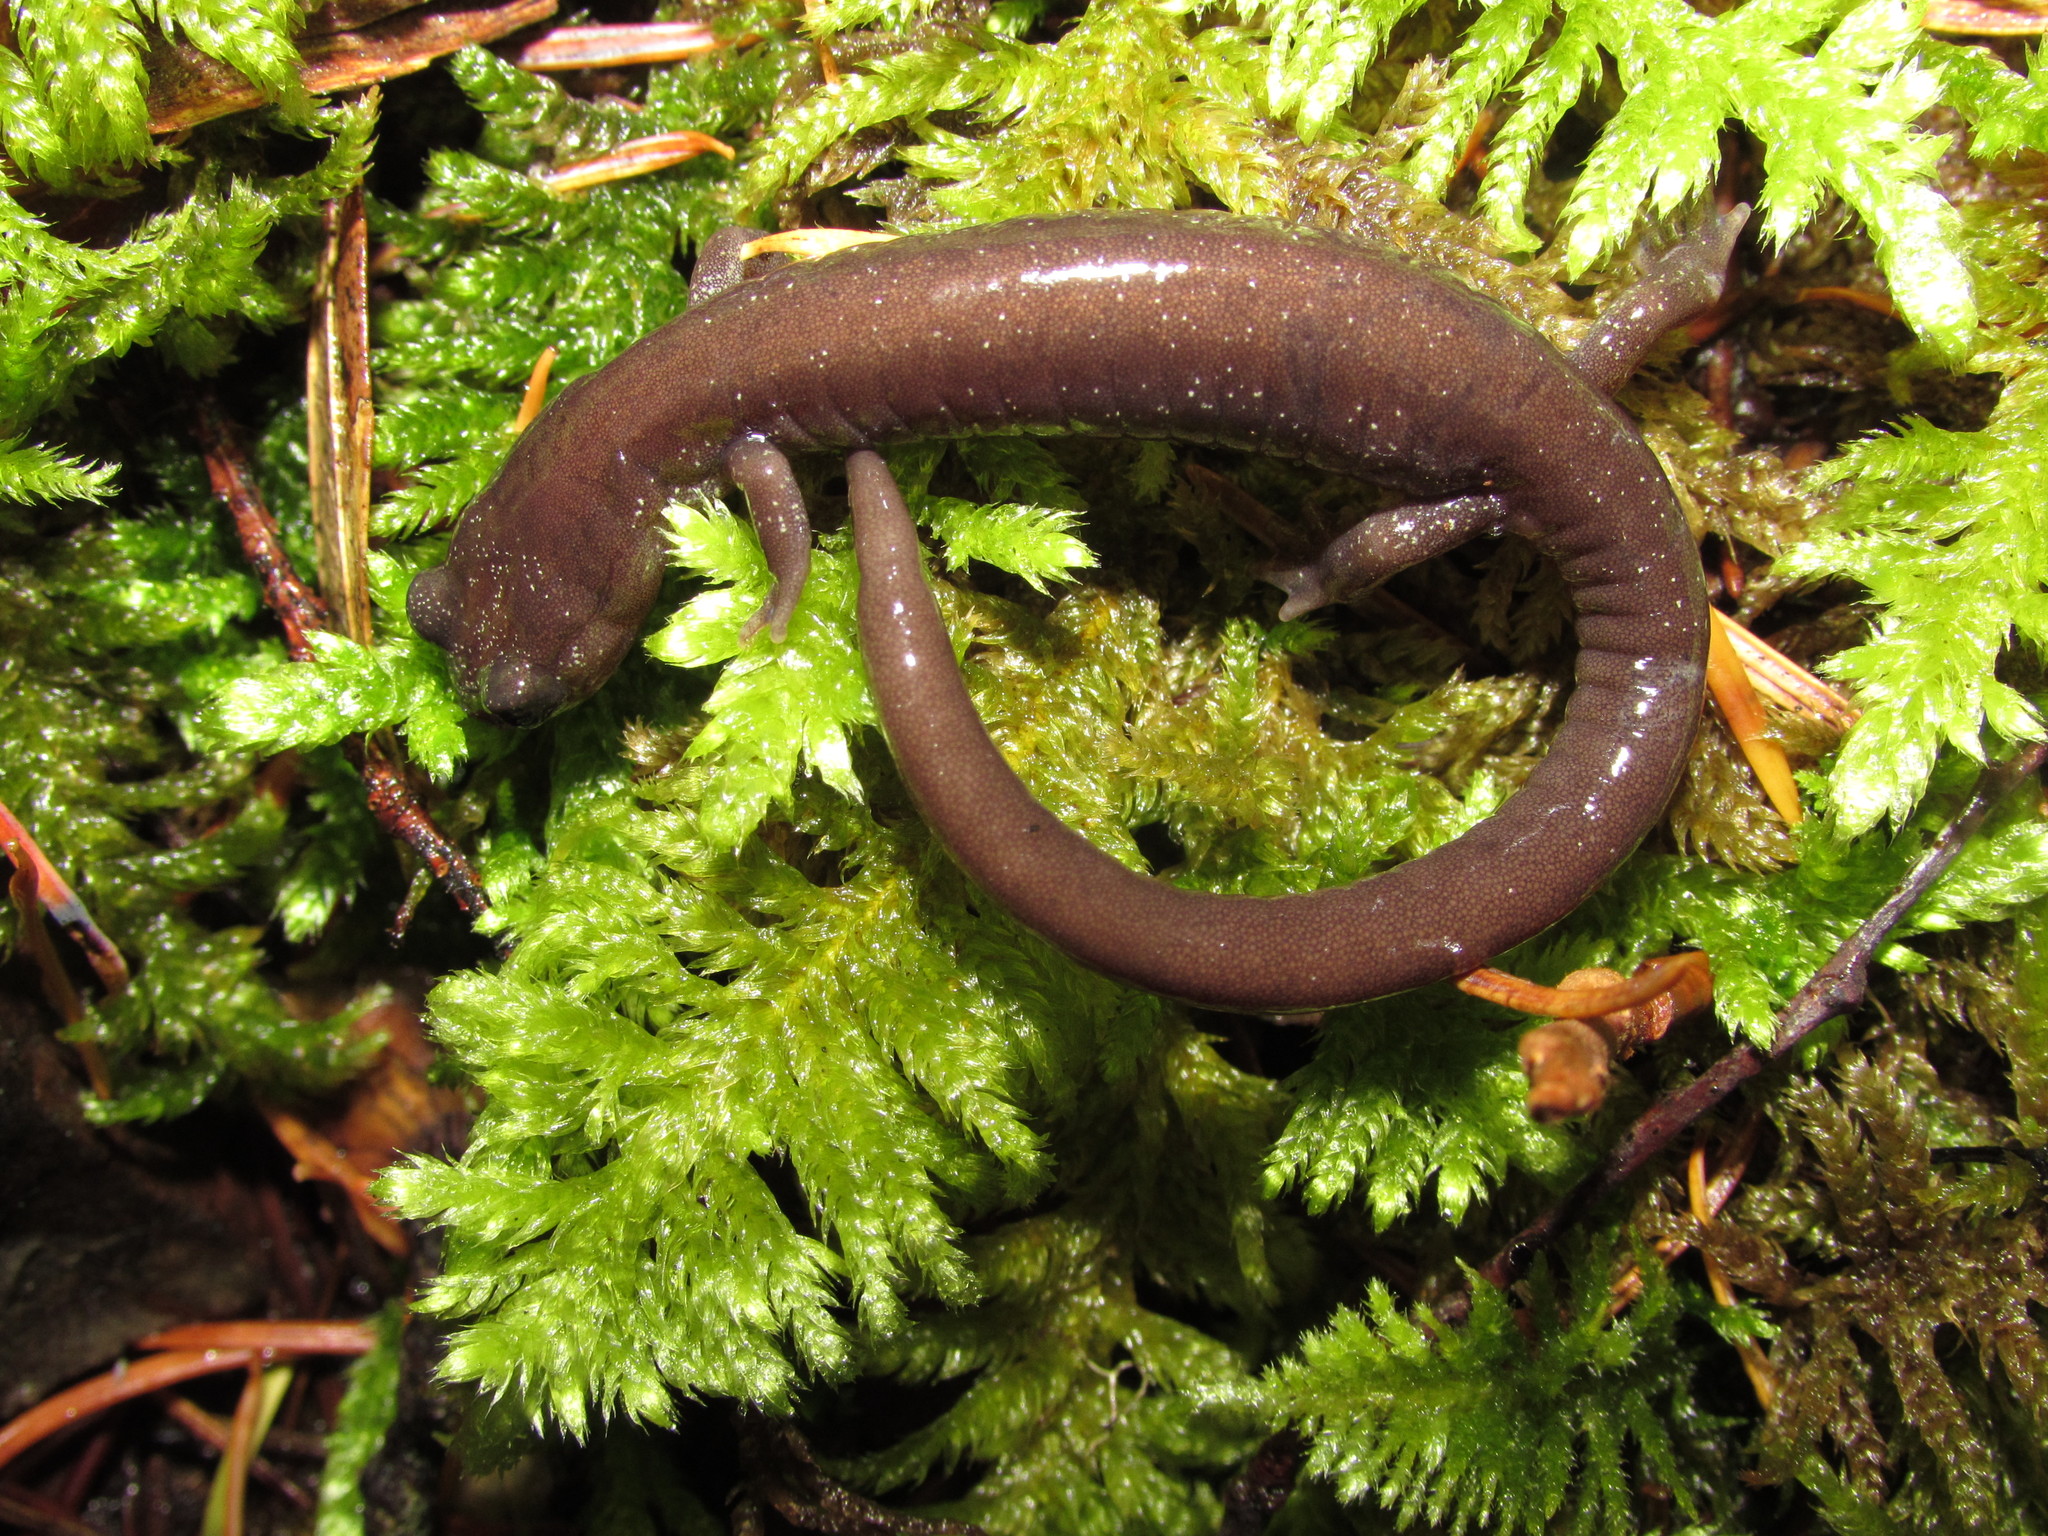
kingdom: Animalia
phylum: Chordata
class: Amphibia
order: Caudata
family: Plethodontidae
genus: Plethodon
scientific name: Plethodon stormi
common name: Siskiyou mountains salamander
